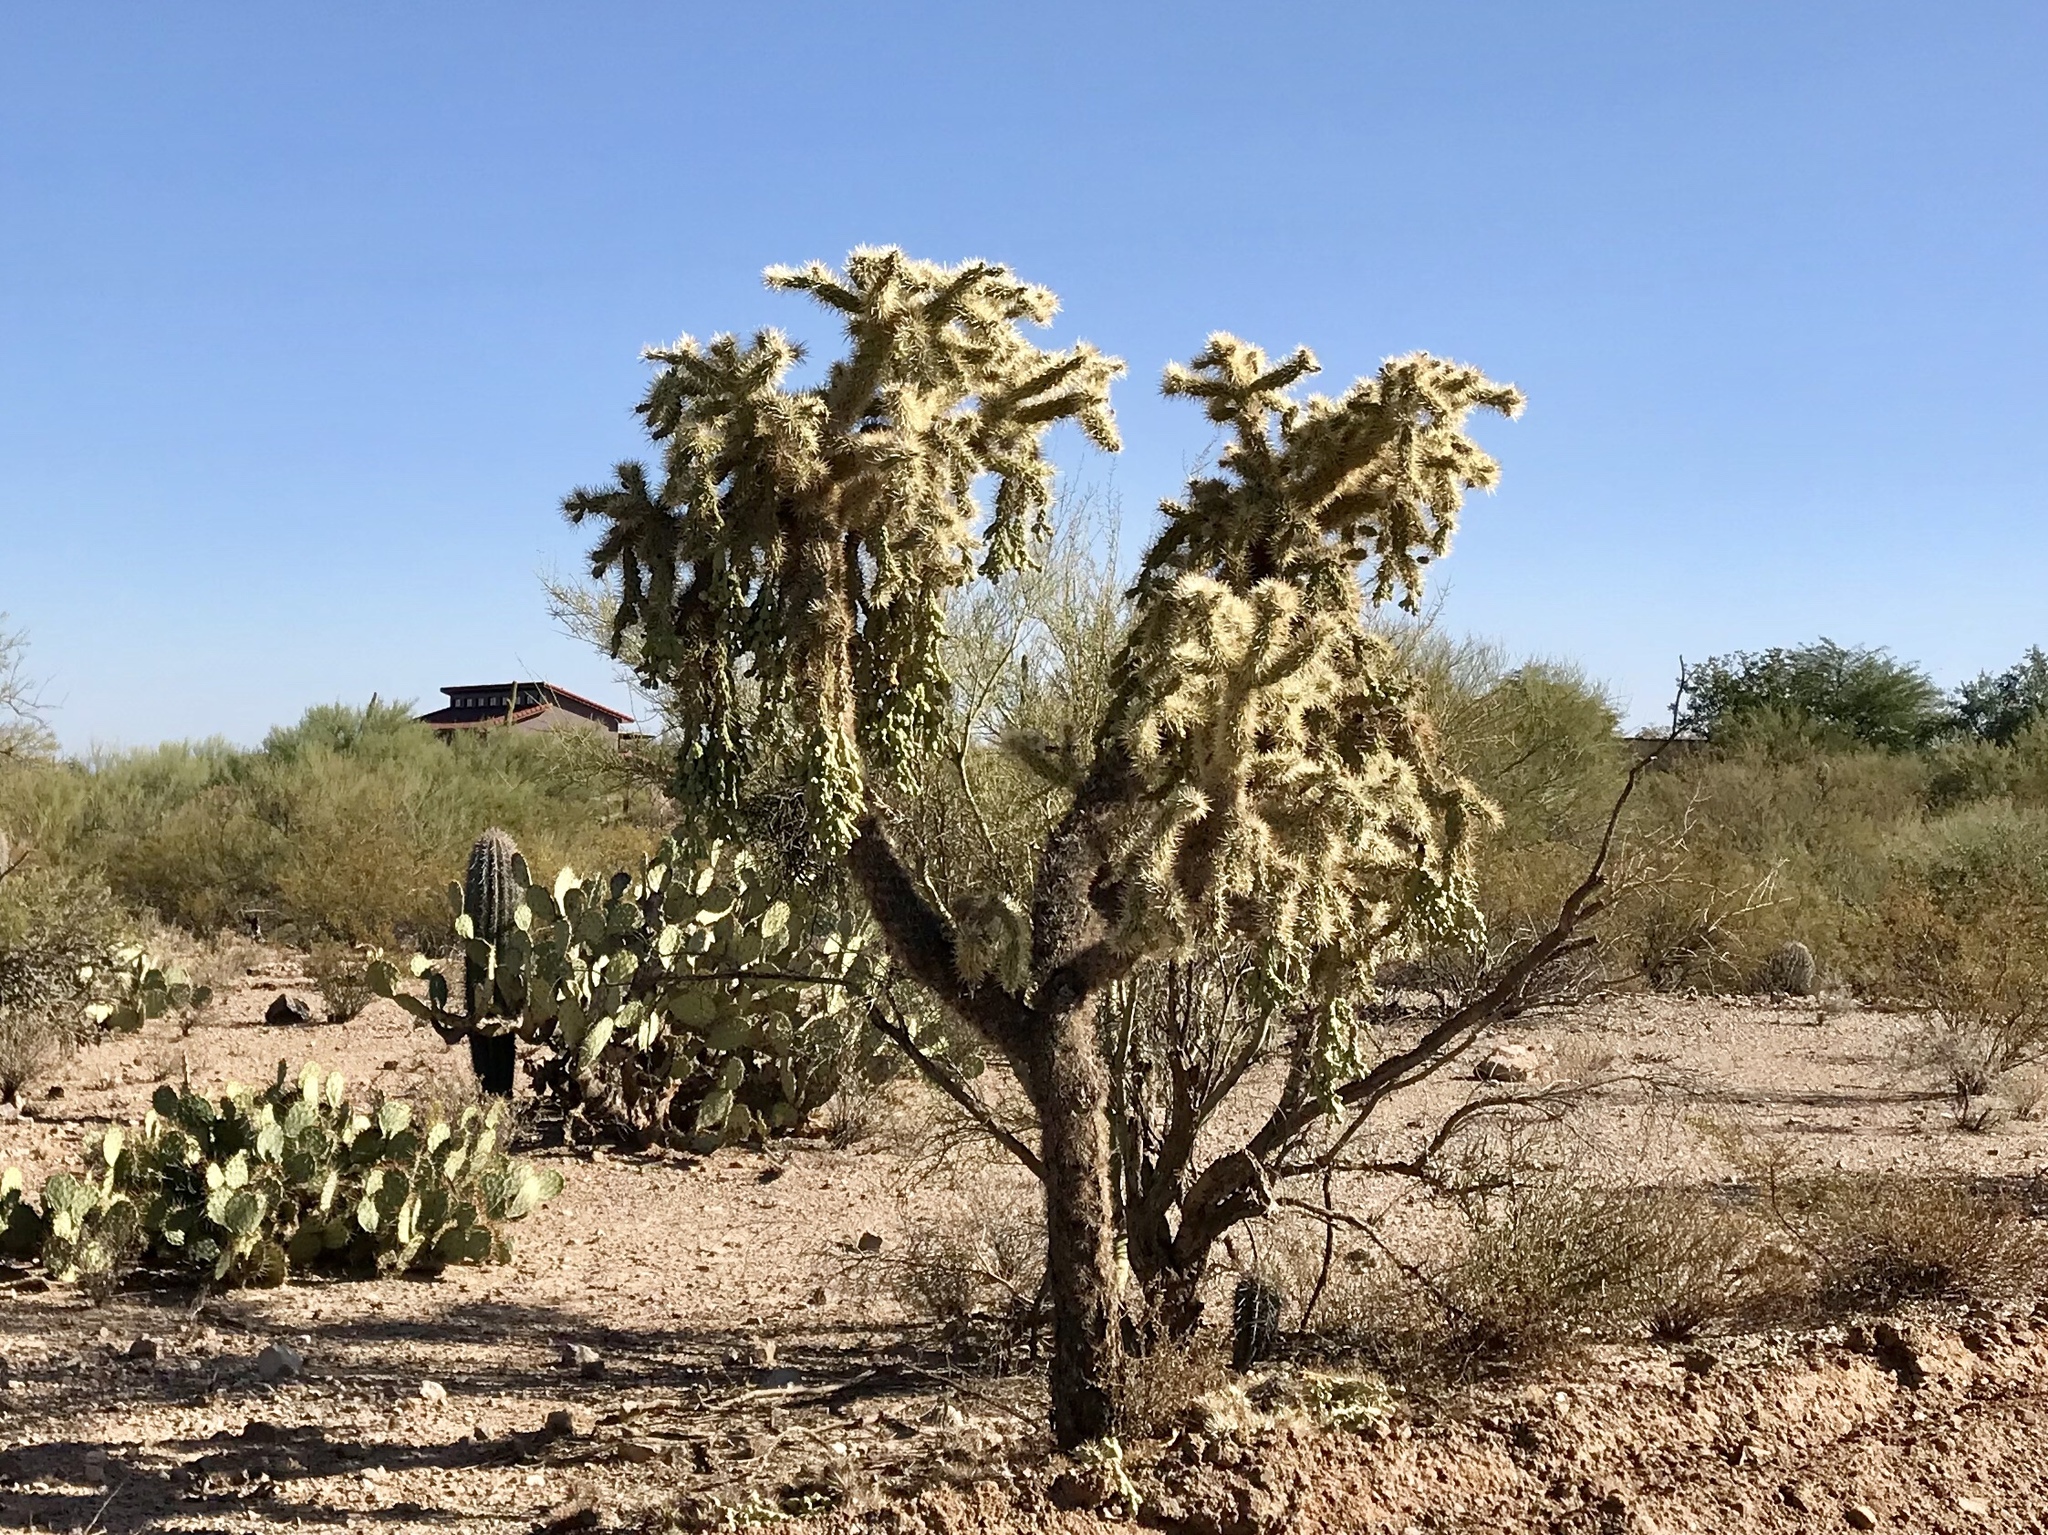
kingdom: Plantae
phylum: Tracheophyta
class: Magnoliopsida
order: Caryophyllales
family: Cactaceae
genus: Cylindropuntia
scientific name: Cylindropuntia fulgida
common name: Jumping cholla
